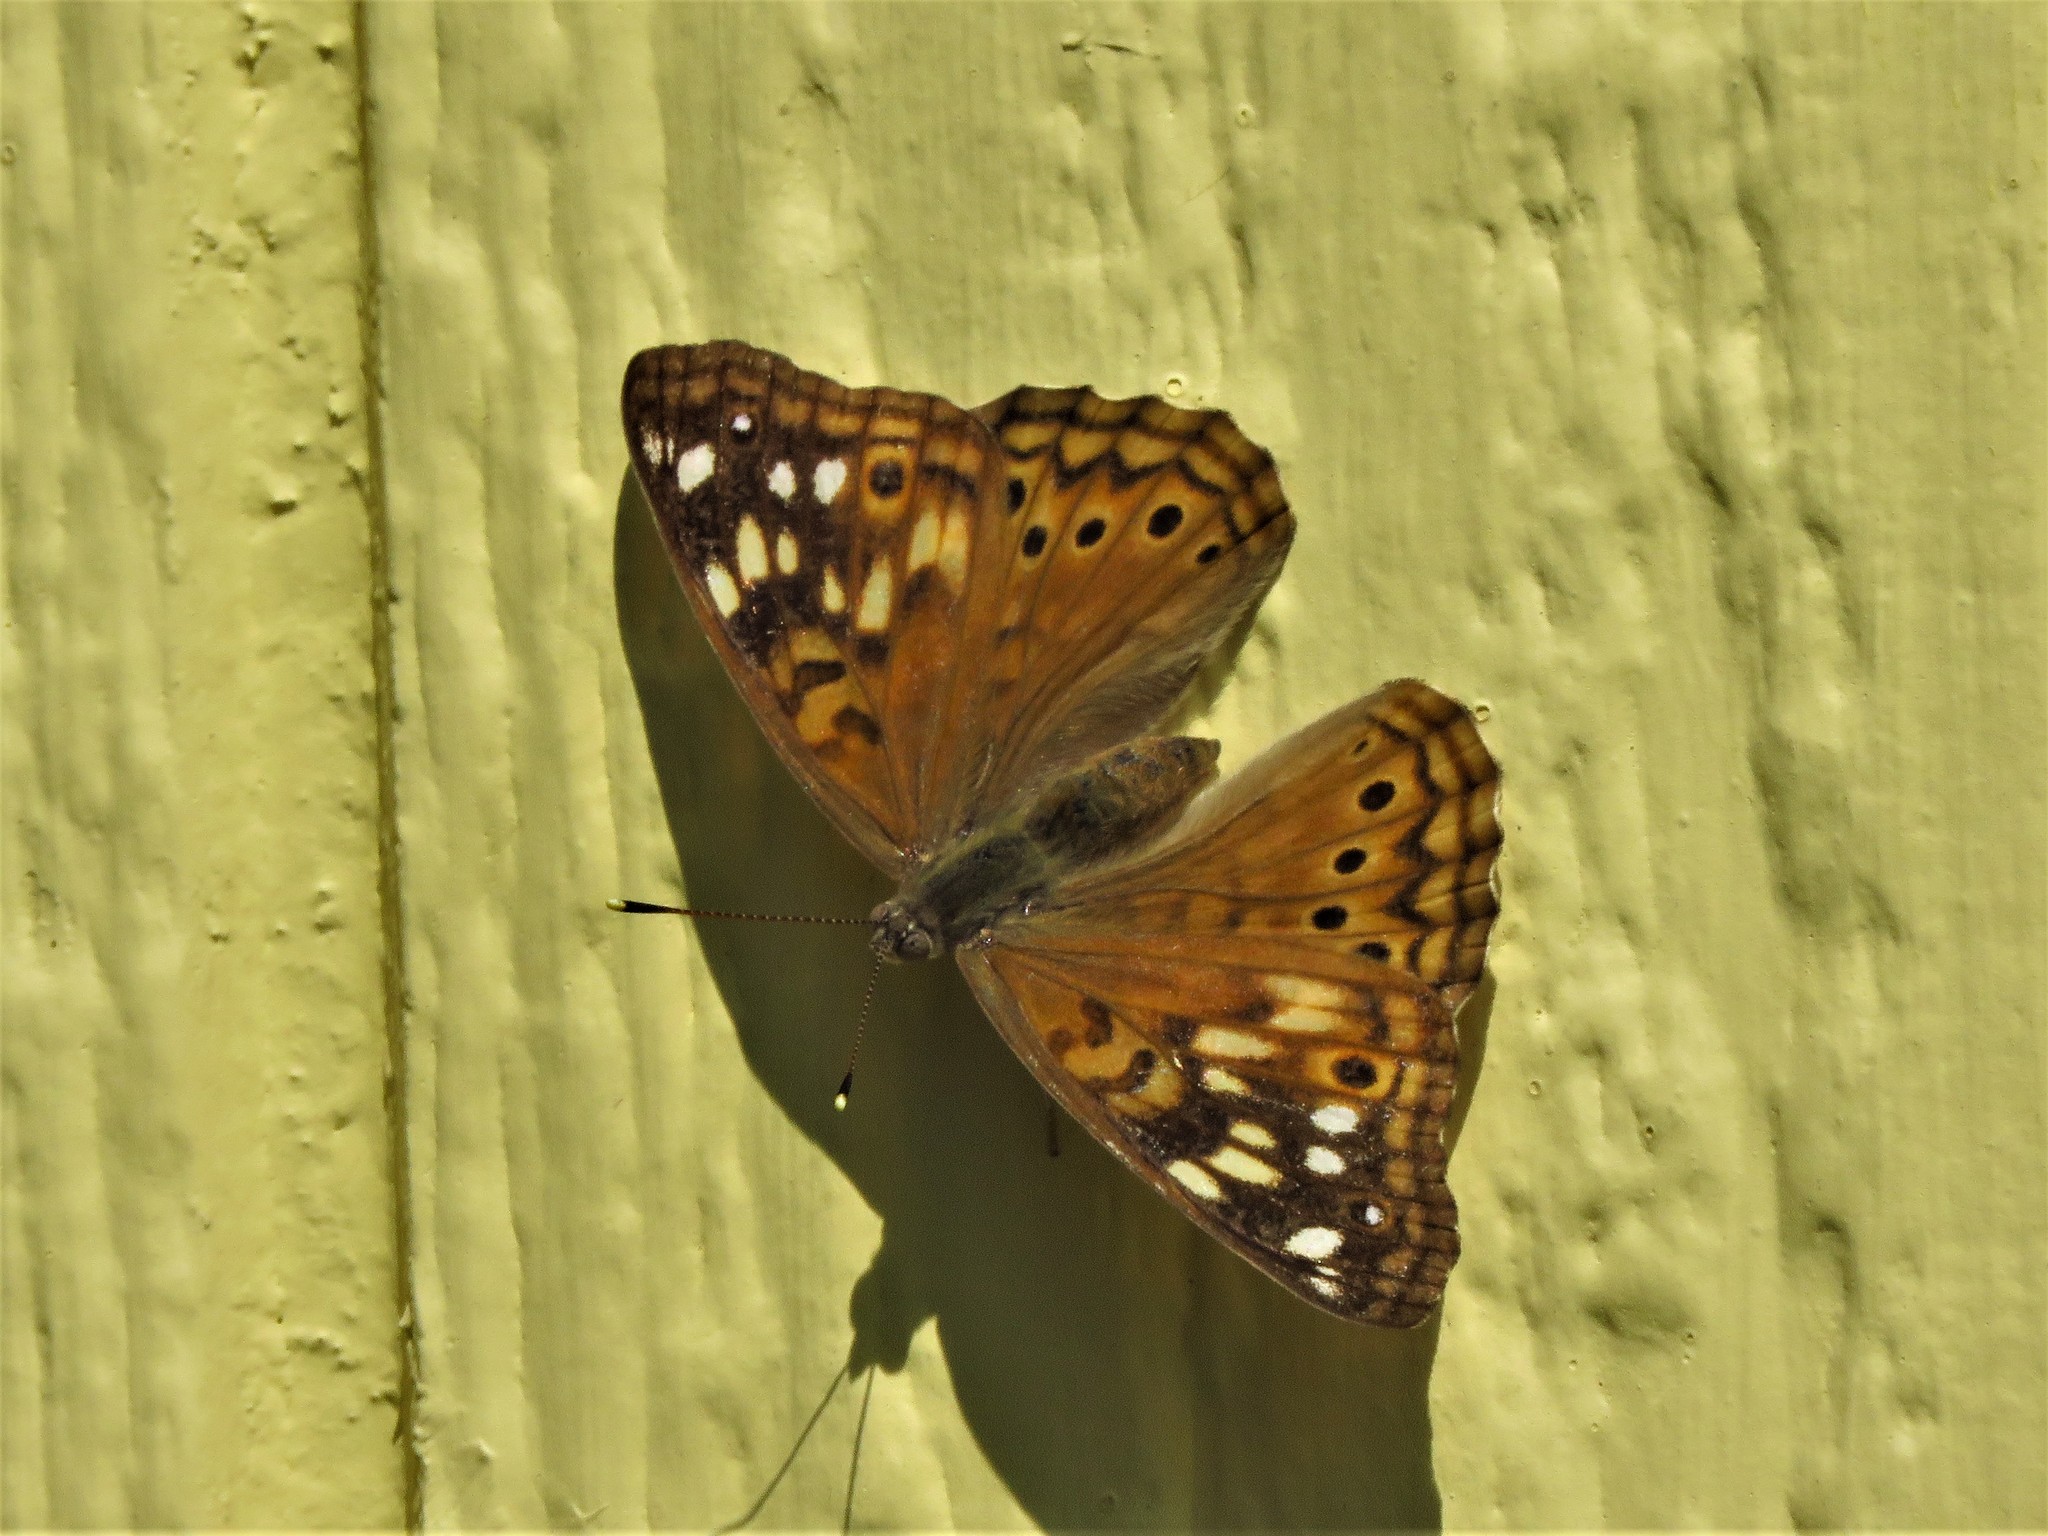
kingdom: Animalia
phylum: Arthropoda
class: Insecta
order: Lepidoptera
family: Nymphalidae
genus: Asterocampa
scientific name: Asterocampa celtis
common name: Hackberry emperor
